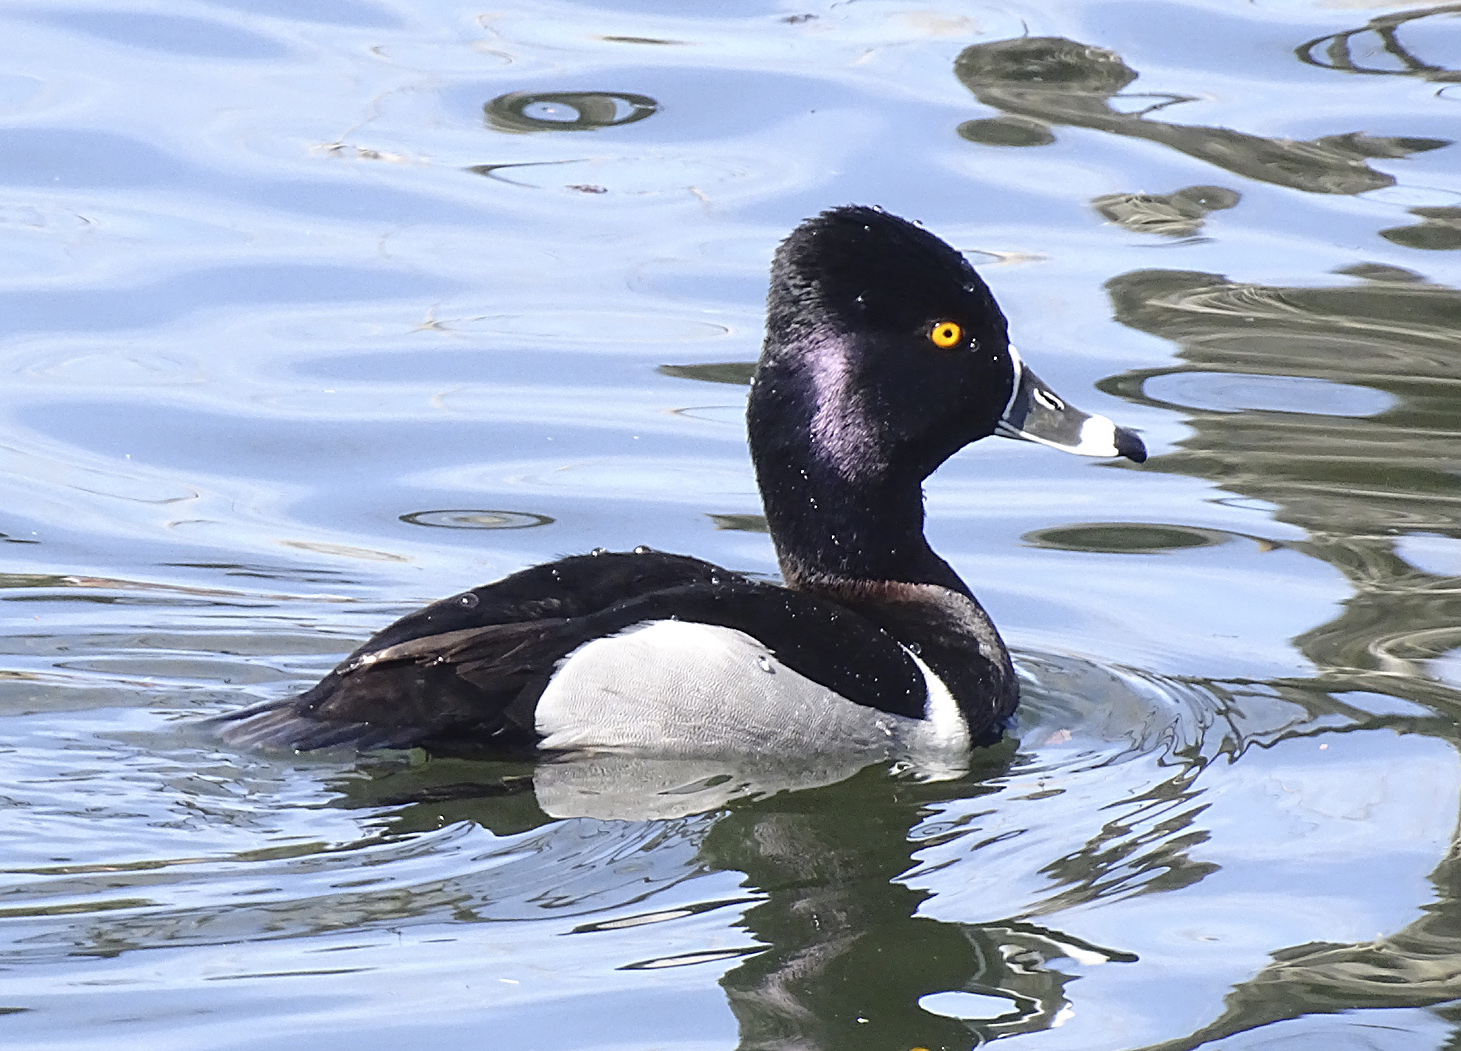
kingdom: Animalia
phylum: Chordata
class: Aves
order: Anseriformes
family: Anatidae
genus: Aythya
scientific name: Aythya collaris
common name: Ring-necked duck
